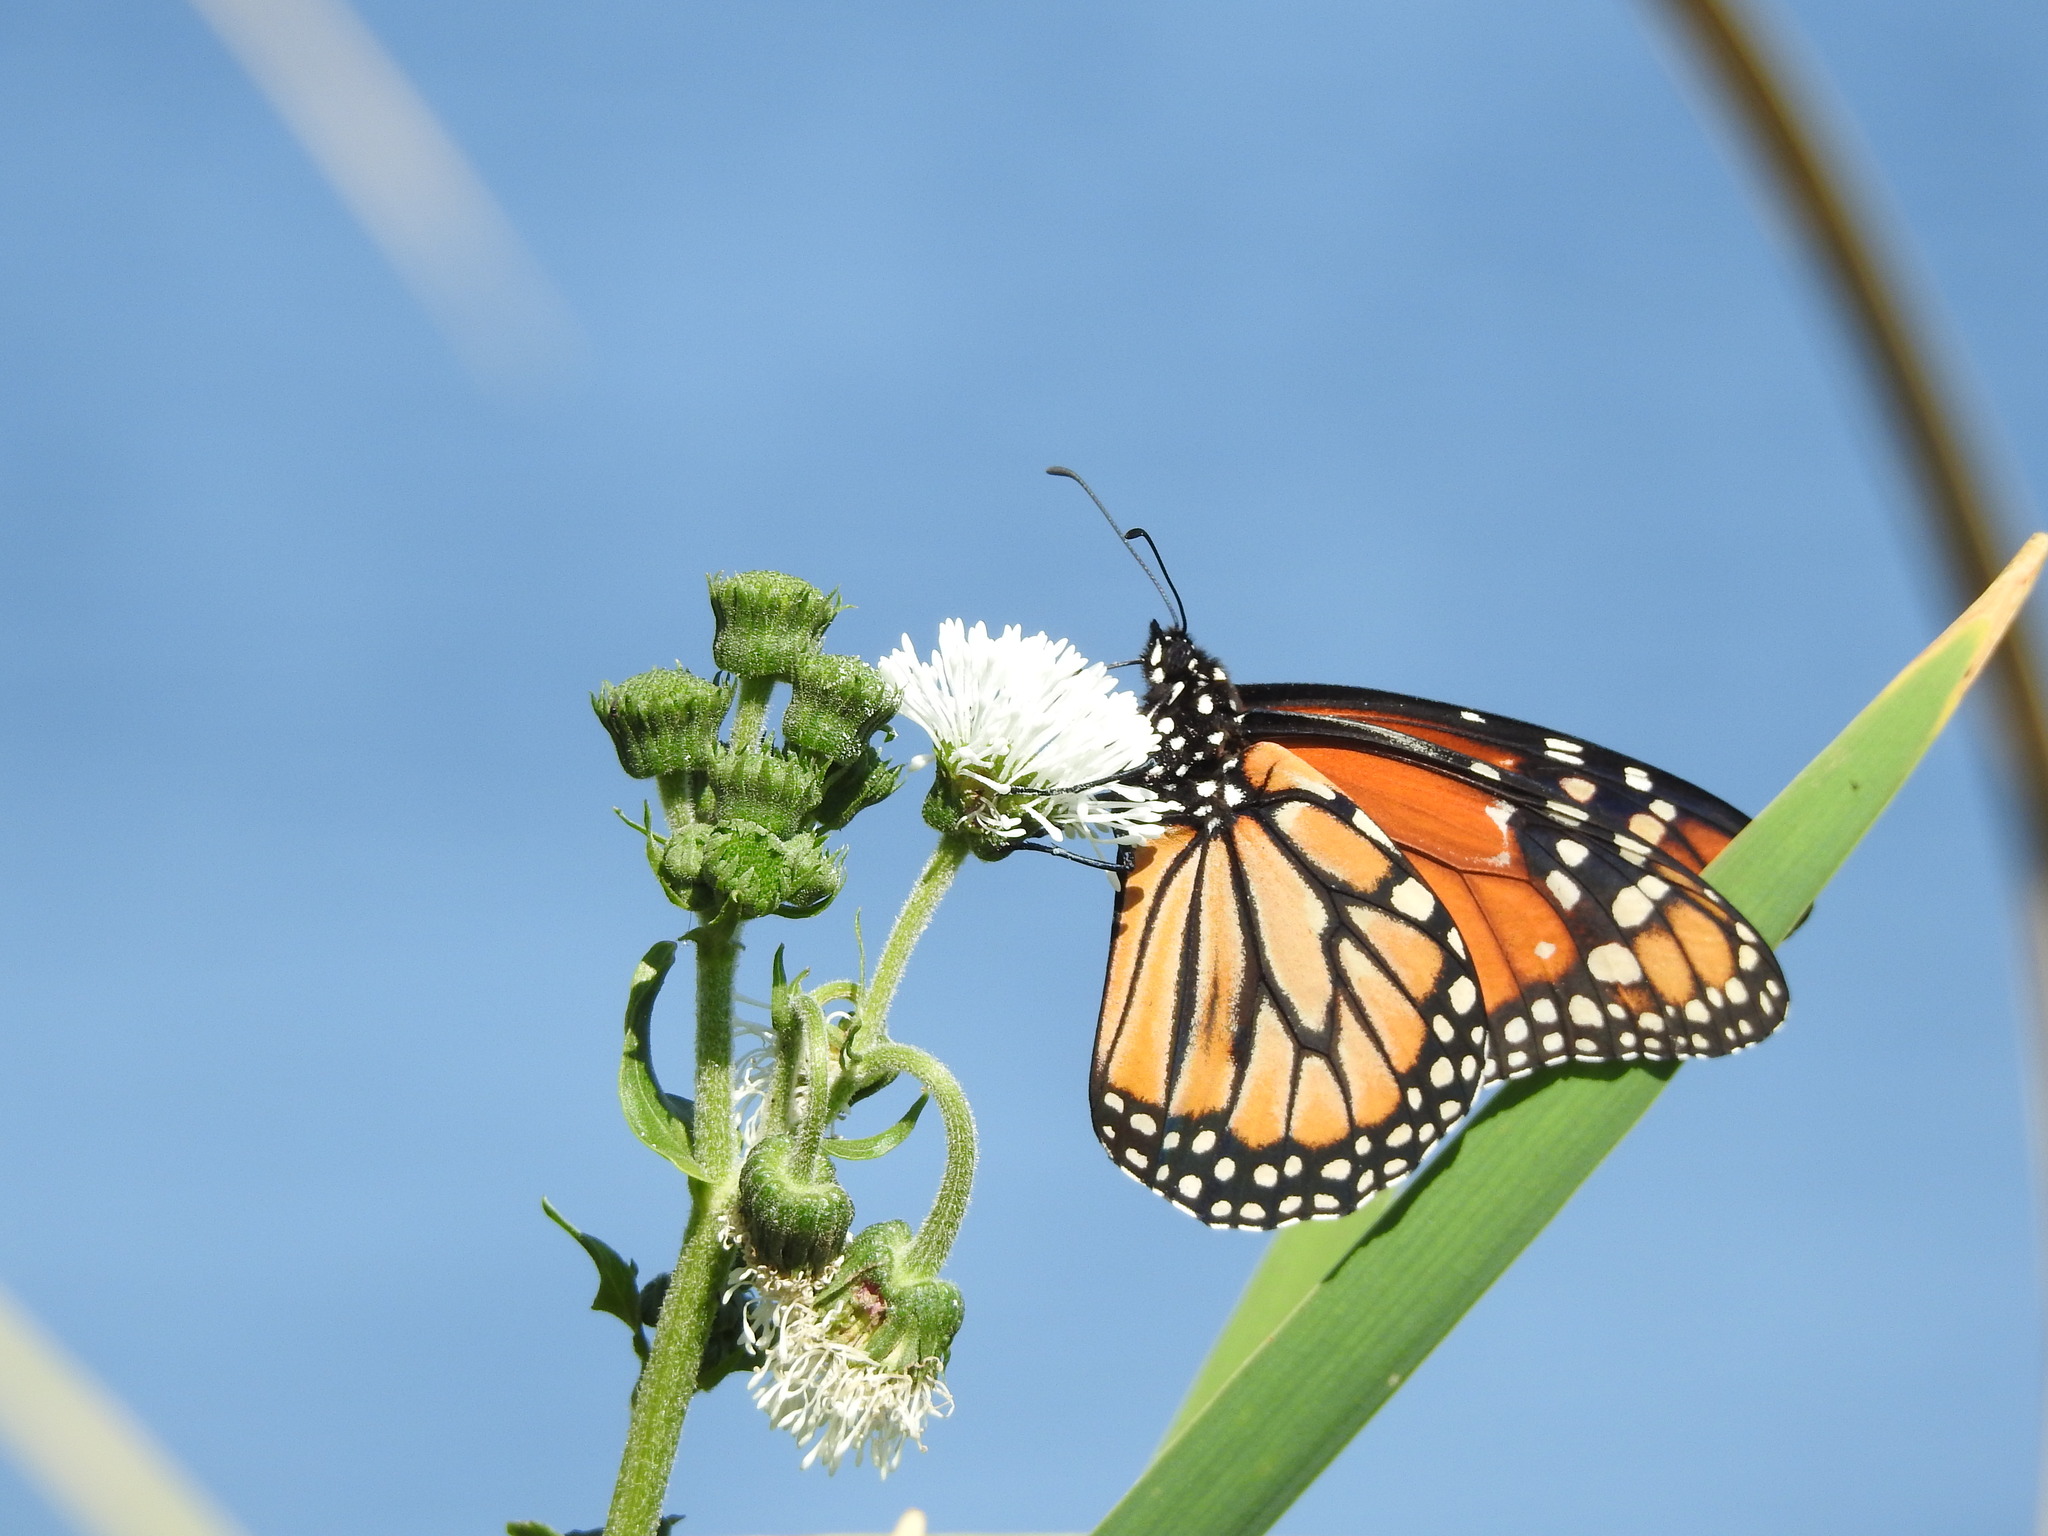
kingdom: Animalia
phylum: Arthropoda
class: Insecta
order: Lepidoptera
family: Nymphalidae
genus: Danaus
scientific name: Danaus erippus
